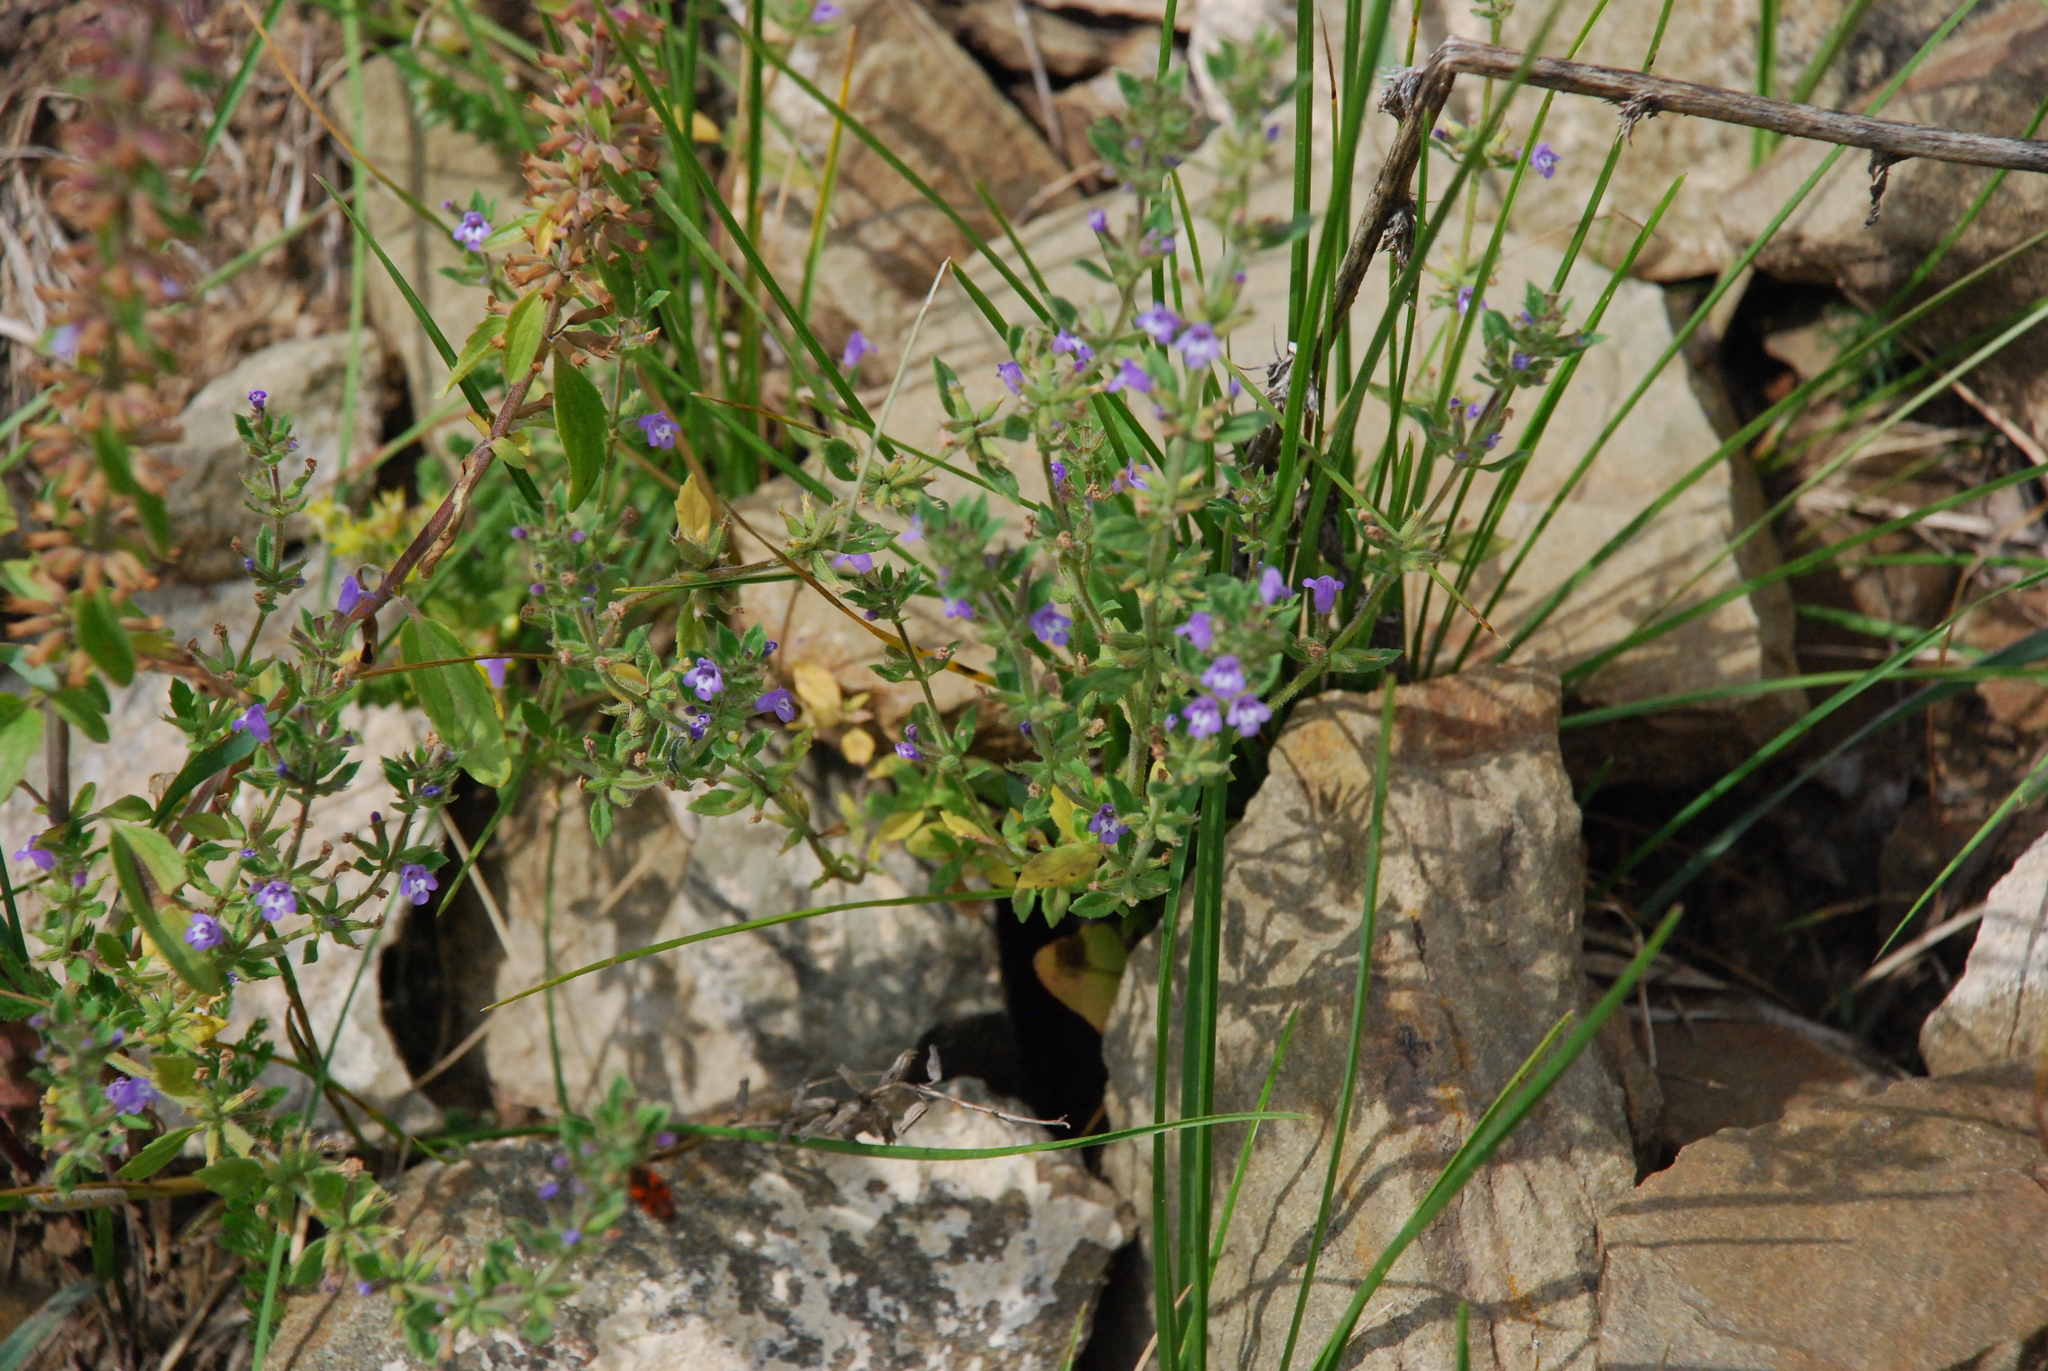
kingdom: Plantae
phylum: Tracheophyta
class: Magnoliopsida
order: Lamiales
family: Lamiaceae
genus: Clinopodium
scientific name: Clinopodium acinos
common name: Basil thyme
